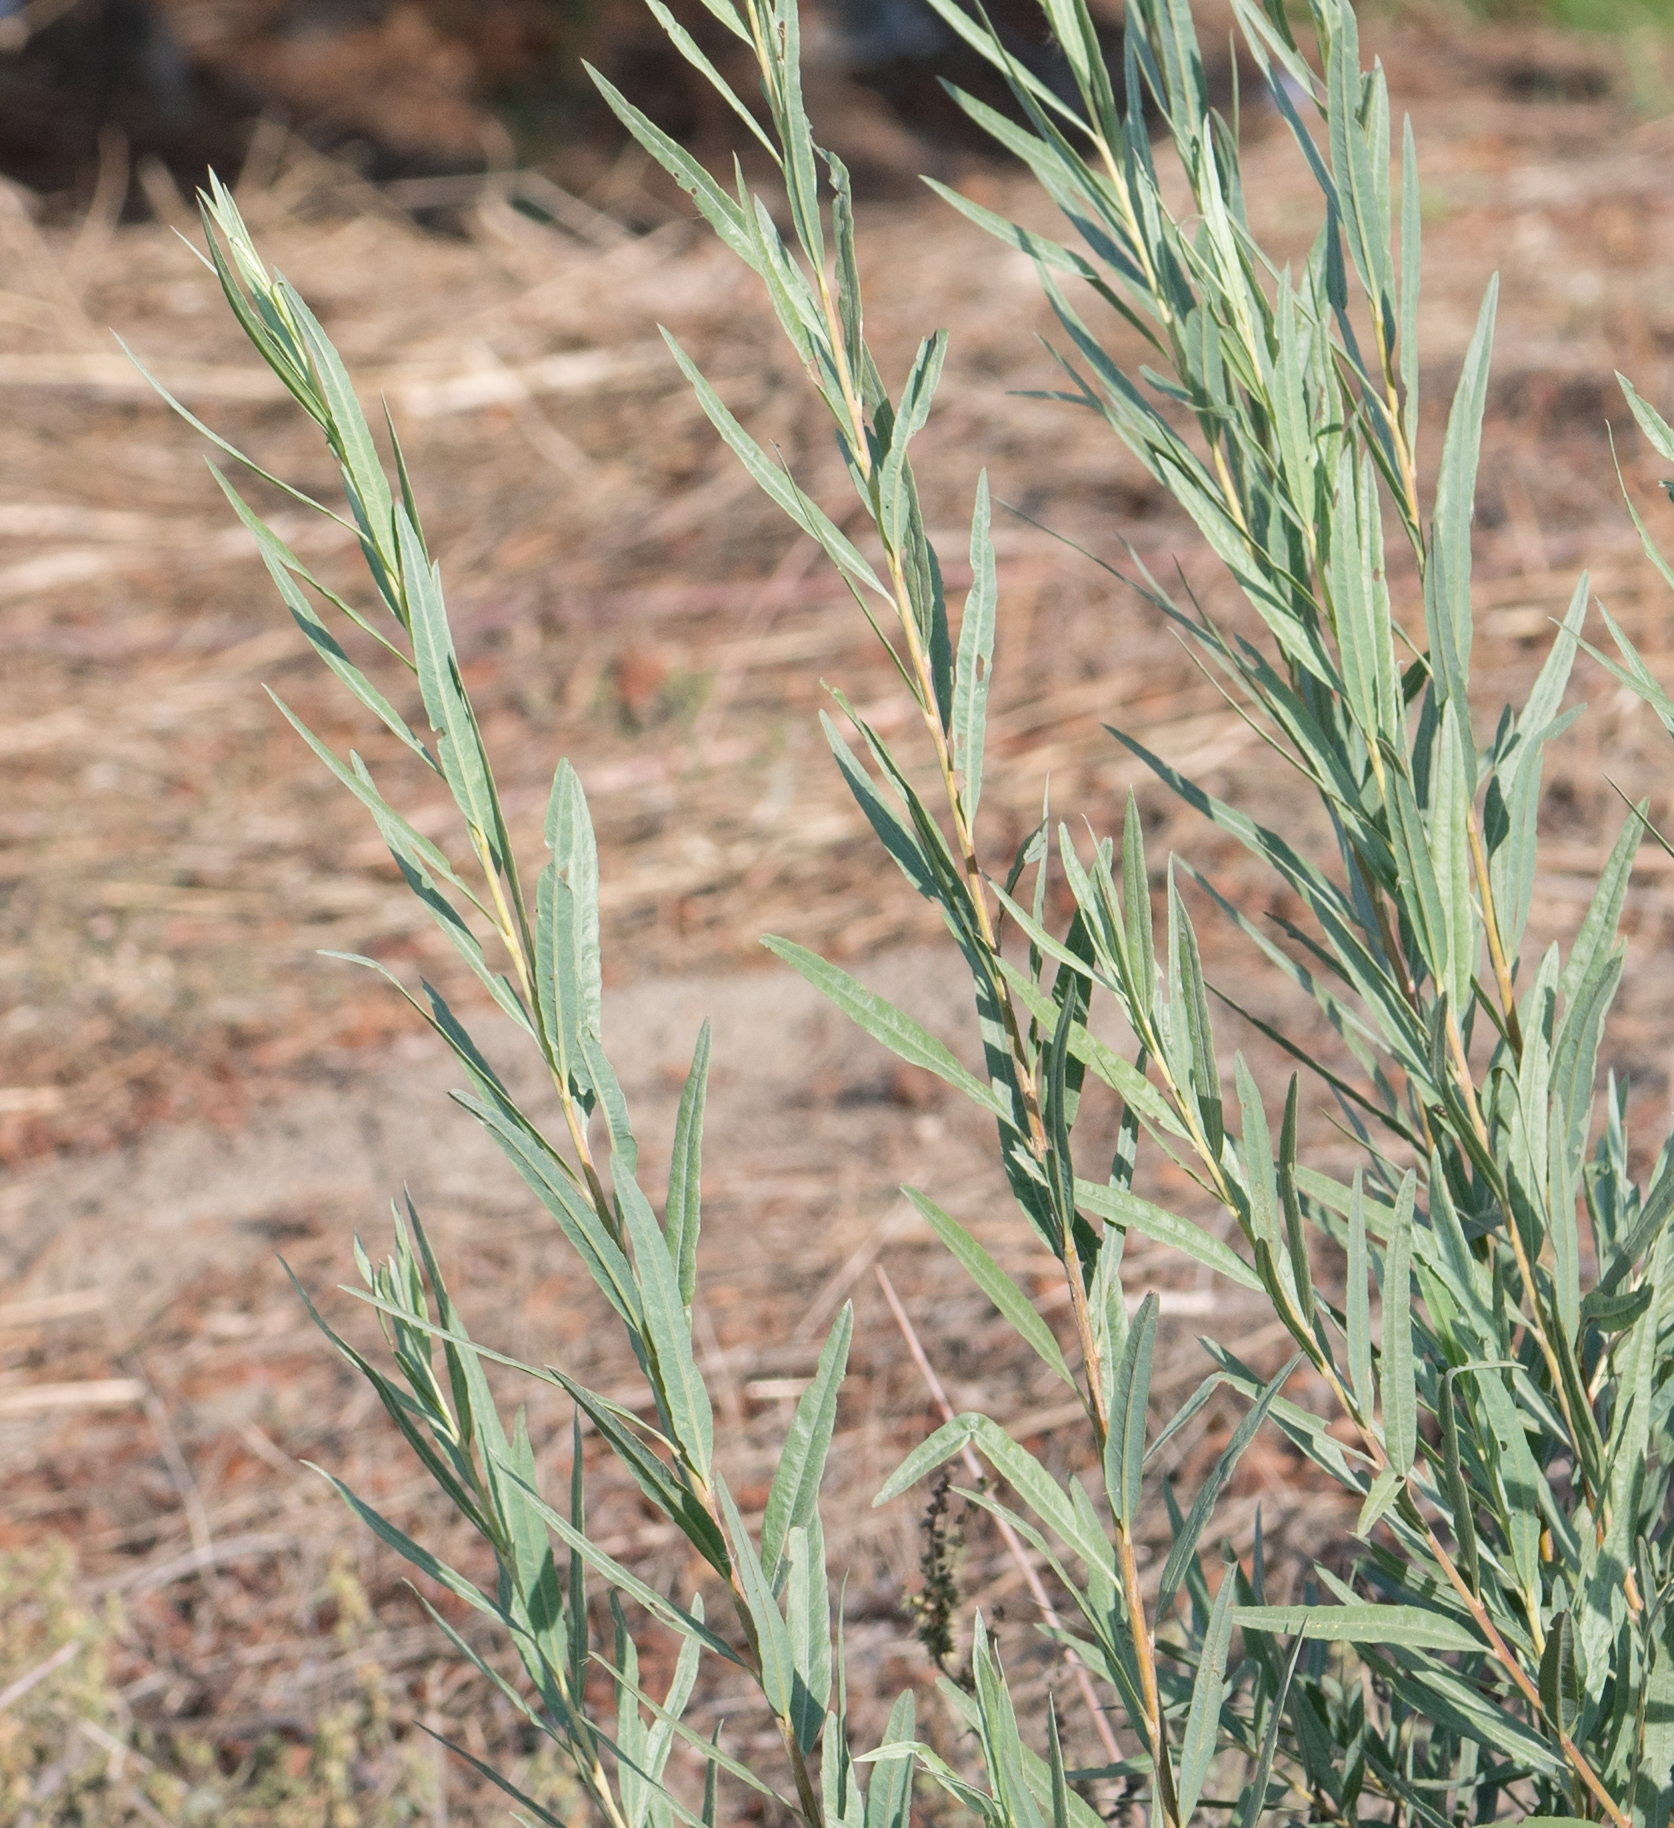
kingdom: Plantae
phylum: Tracheophyta
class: Magnoliopsida
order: Malpighiales
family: Salicaceae
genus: Salix
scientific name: Salix exigua
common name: Coyote willow
